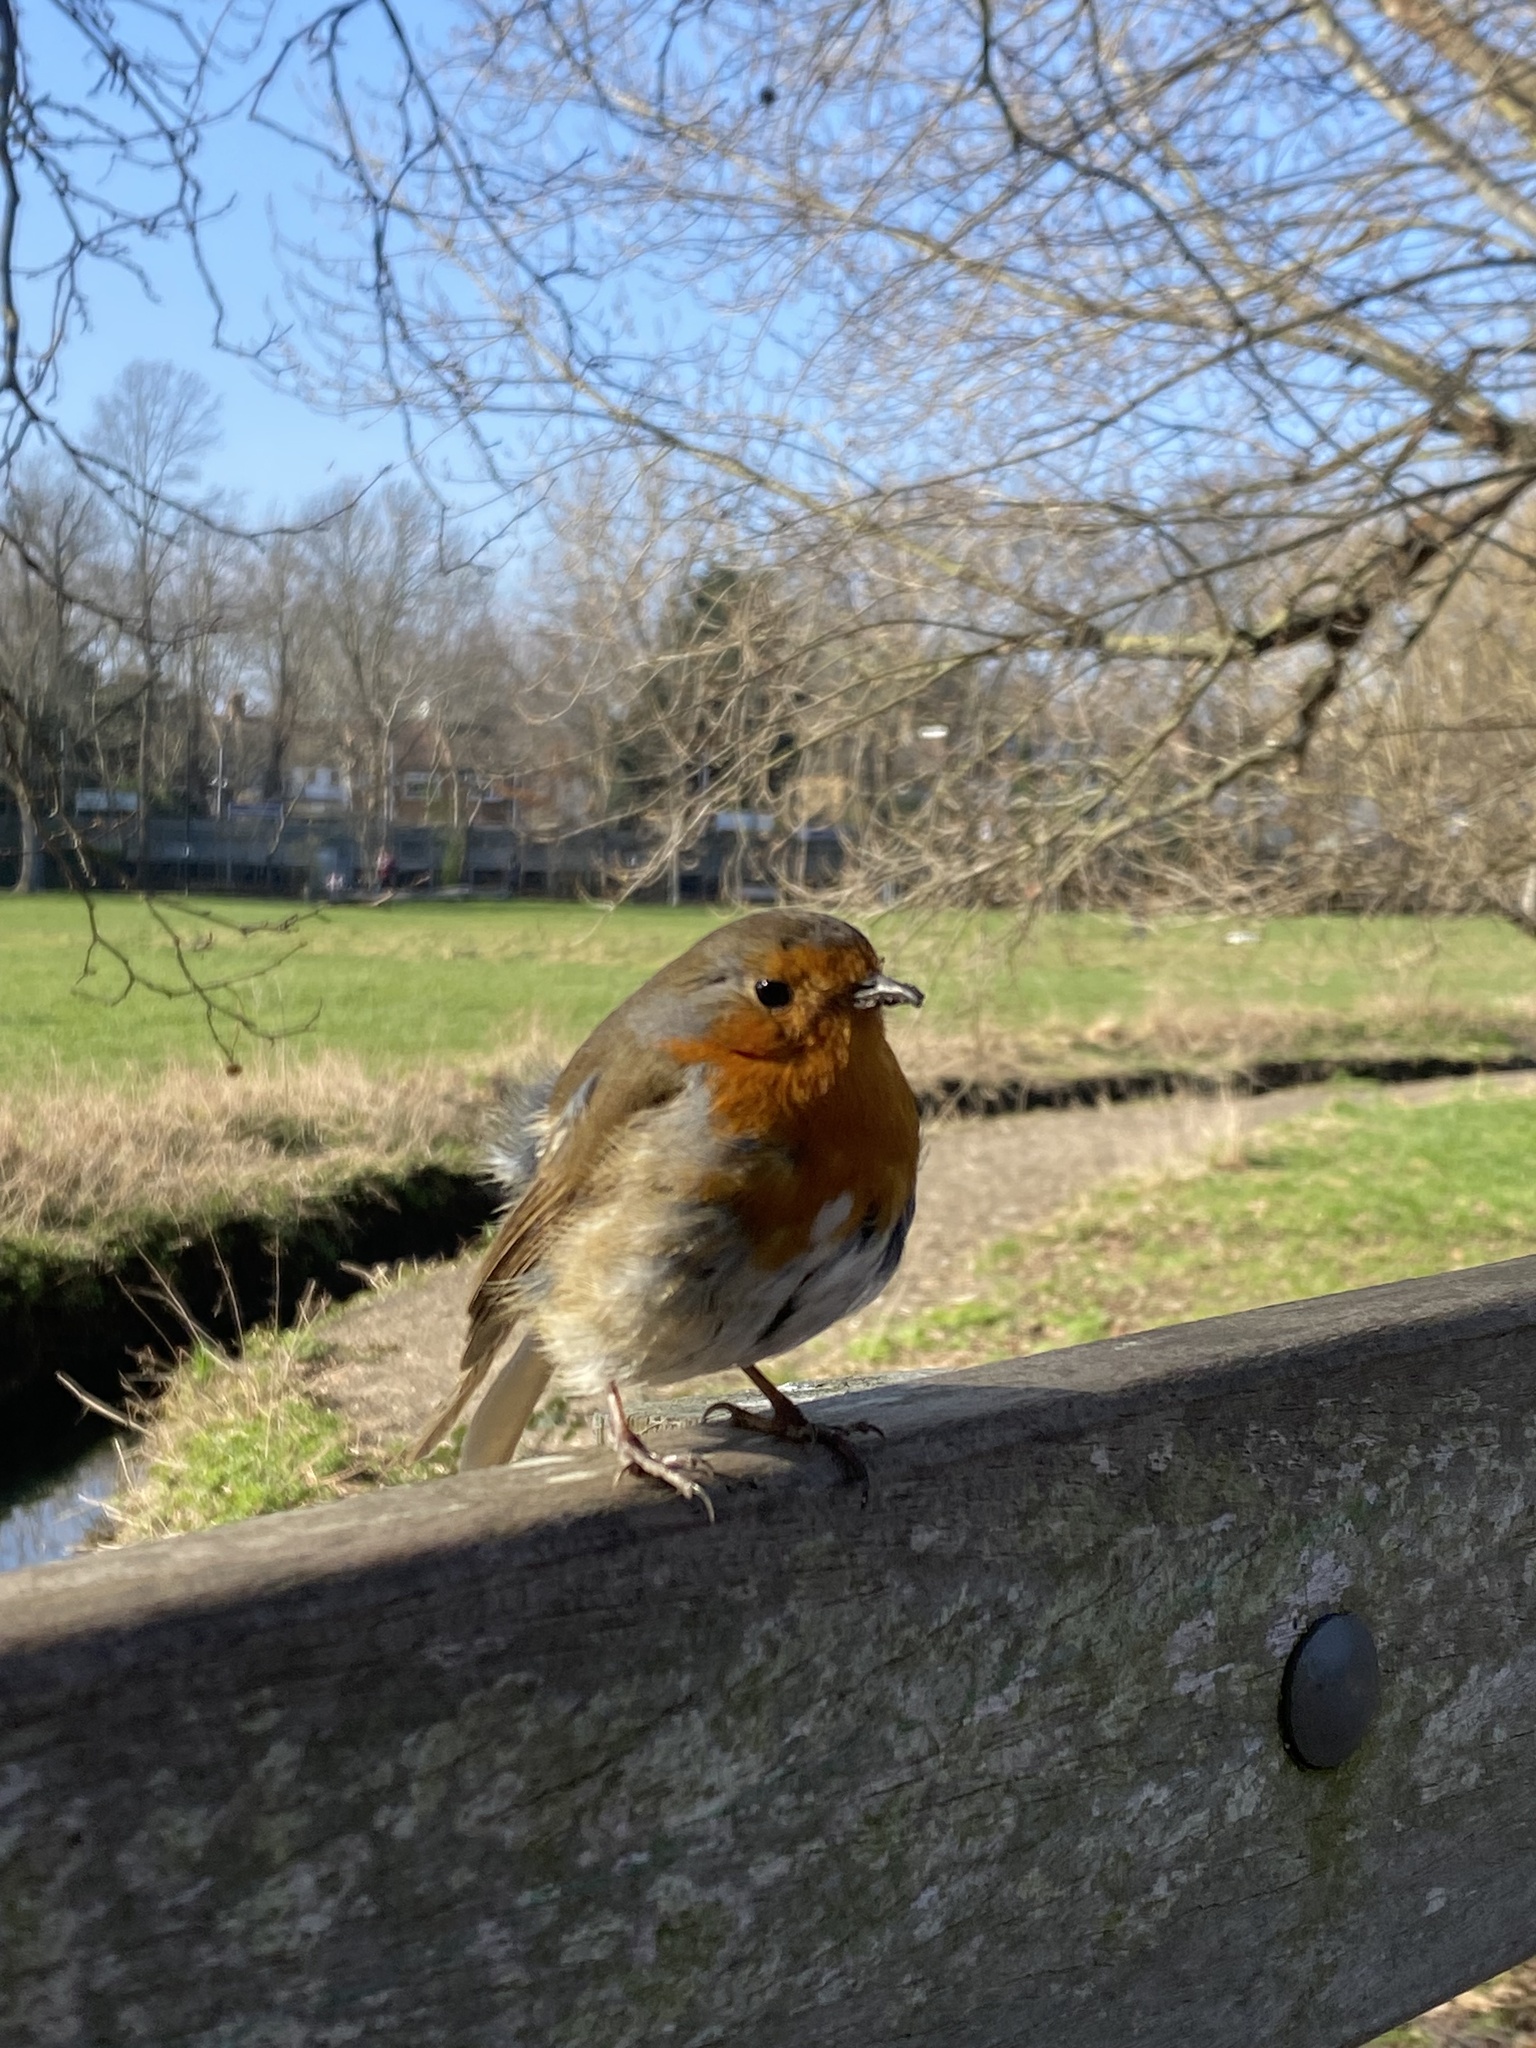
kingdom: Animalia
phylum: Chordata
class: Aves
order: Passeriformes
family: Muscicapidae
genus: Erithacus
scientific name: Erithacus rubecula
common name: European robin
